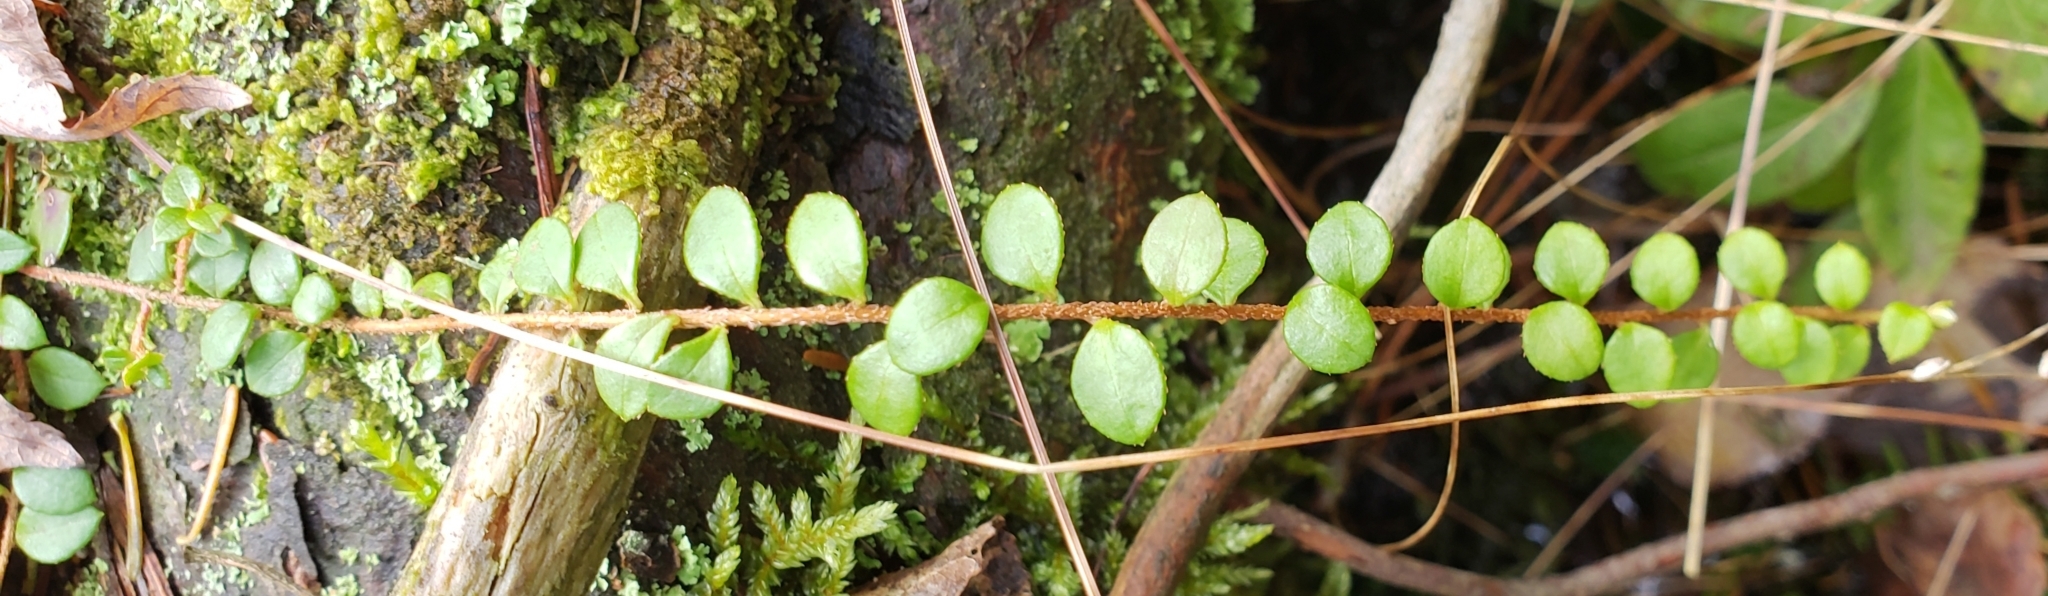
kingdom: Plantae
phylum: Tracheophyta
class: Magnoliopsida
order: Ericales
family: Ericaceae
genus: Gaultheria
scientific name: Gaultheria hispidula
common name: Cancer wintergreen
